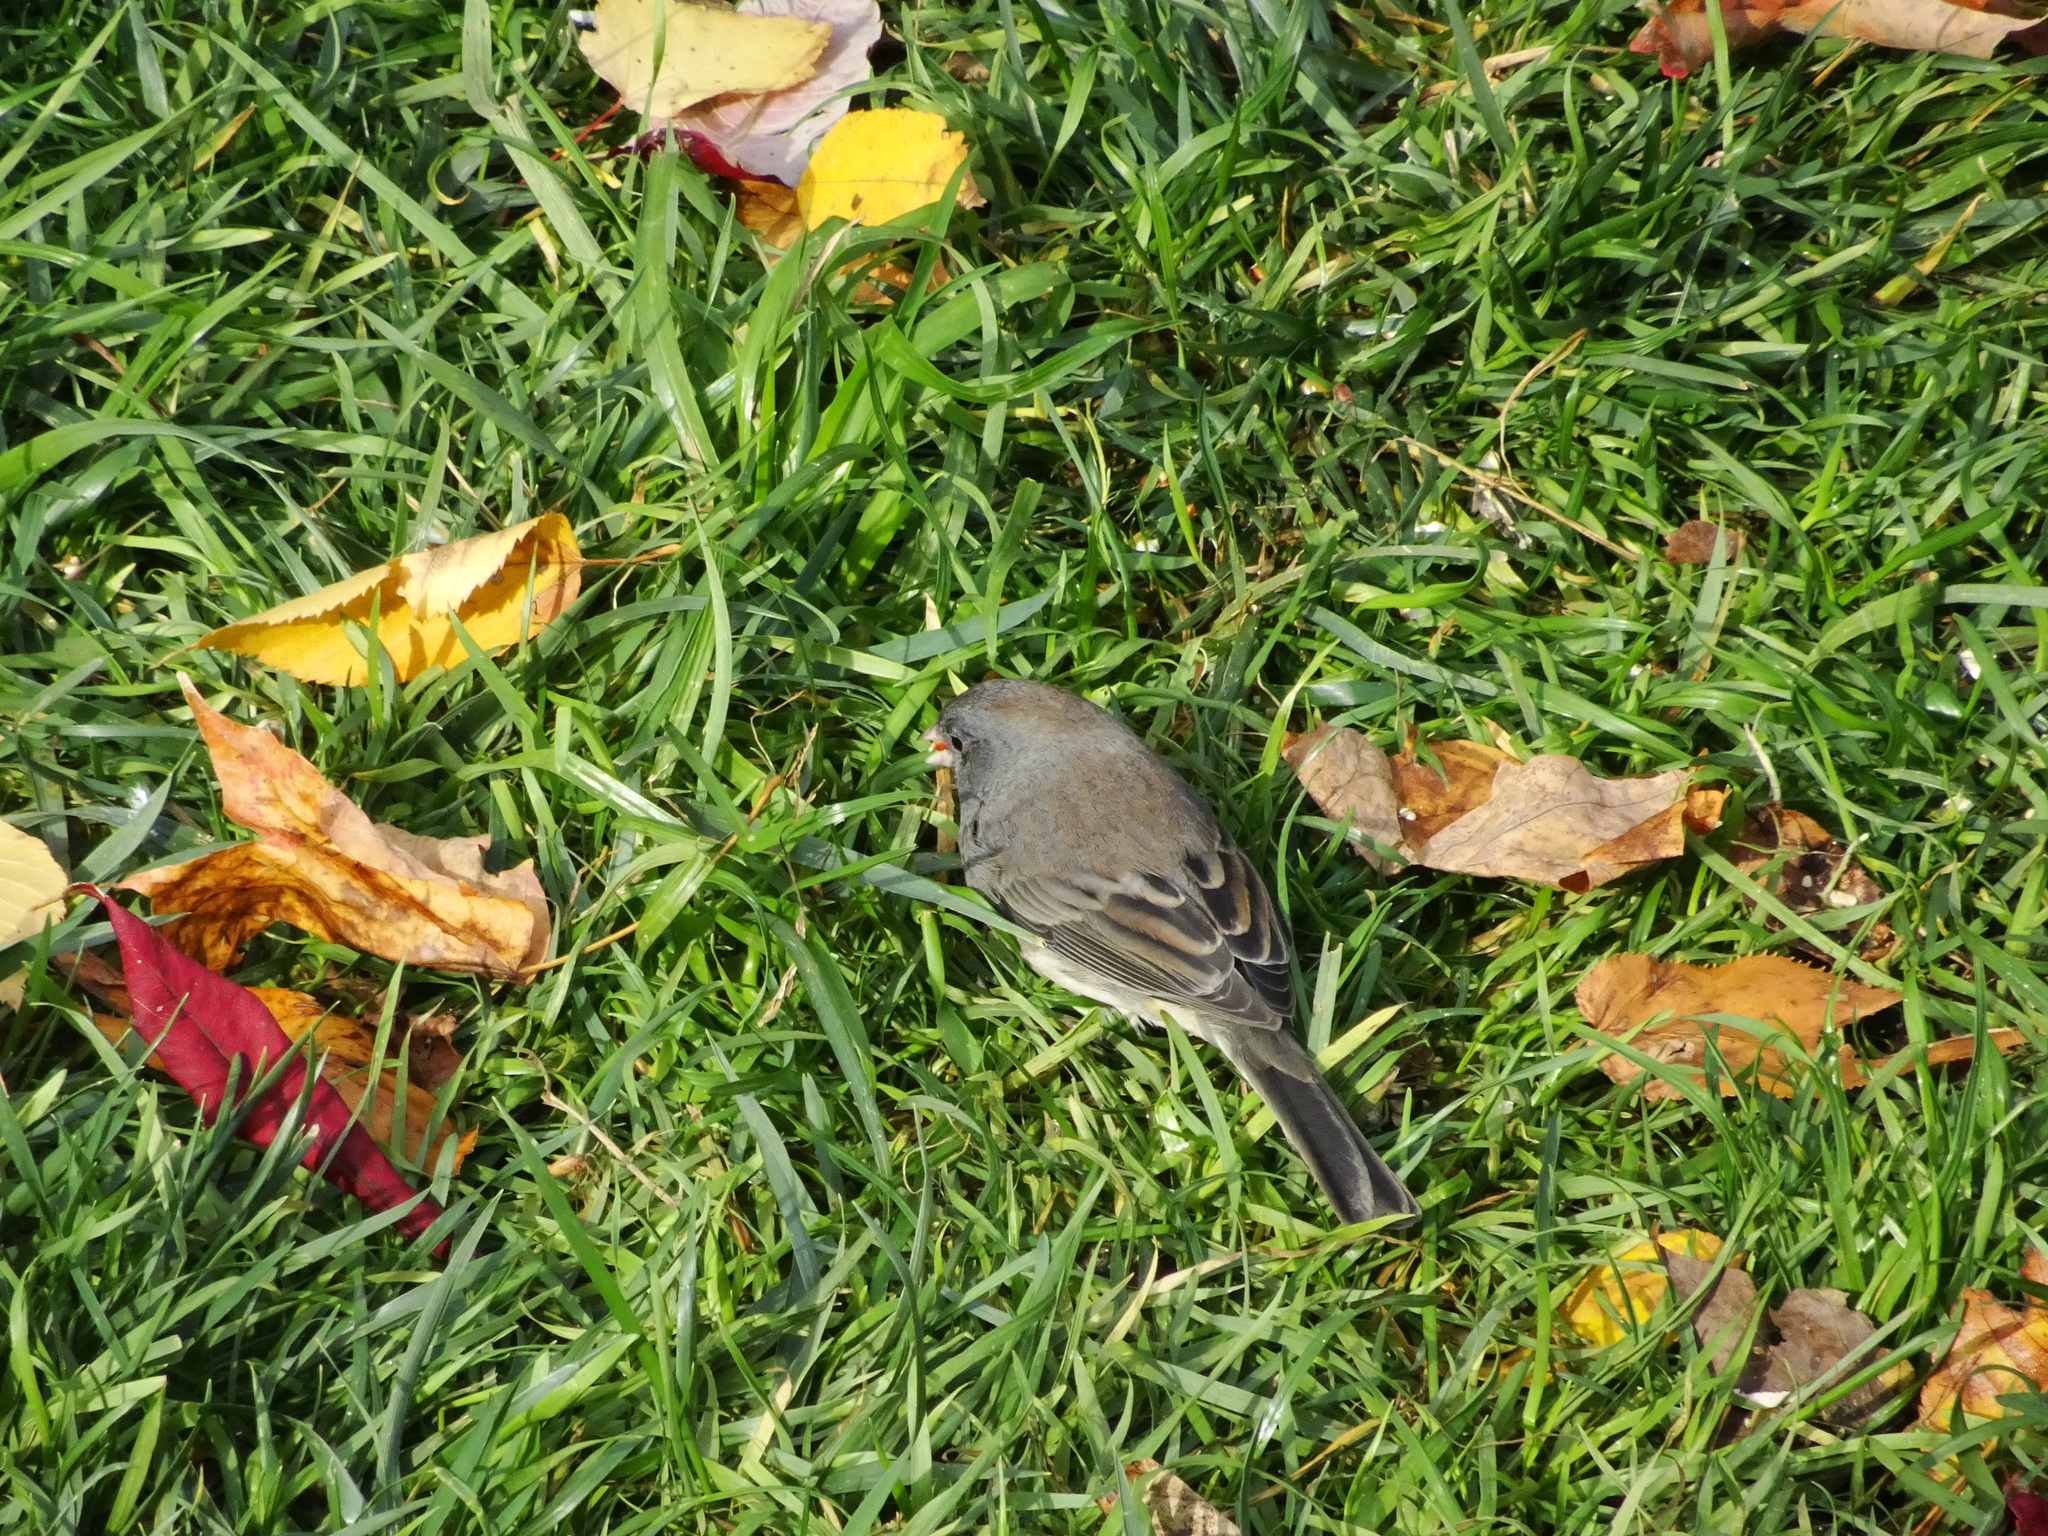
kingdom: Animalia
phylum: Chordata
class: Aves
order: Passeriformes
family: Passerellidae
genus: Junco
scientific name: Junco hyemalis
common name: Dark-eyed junco
